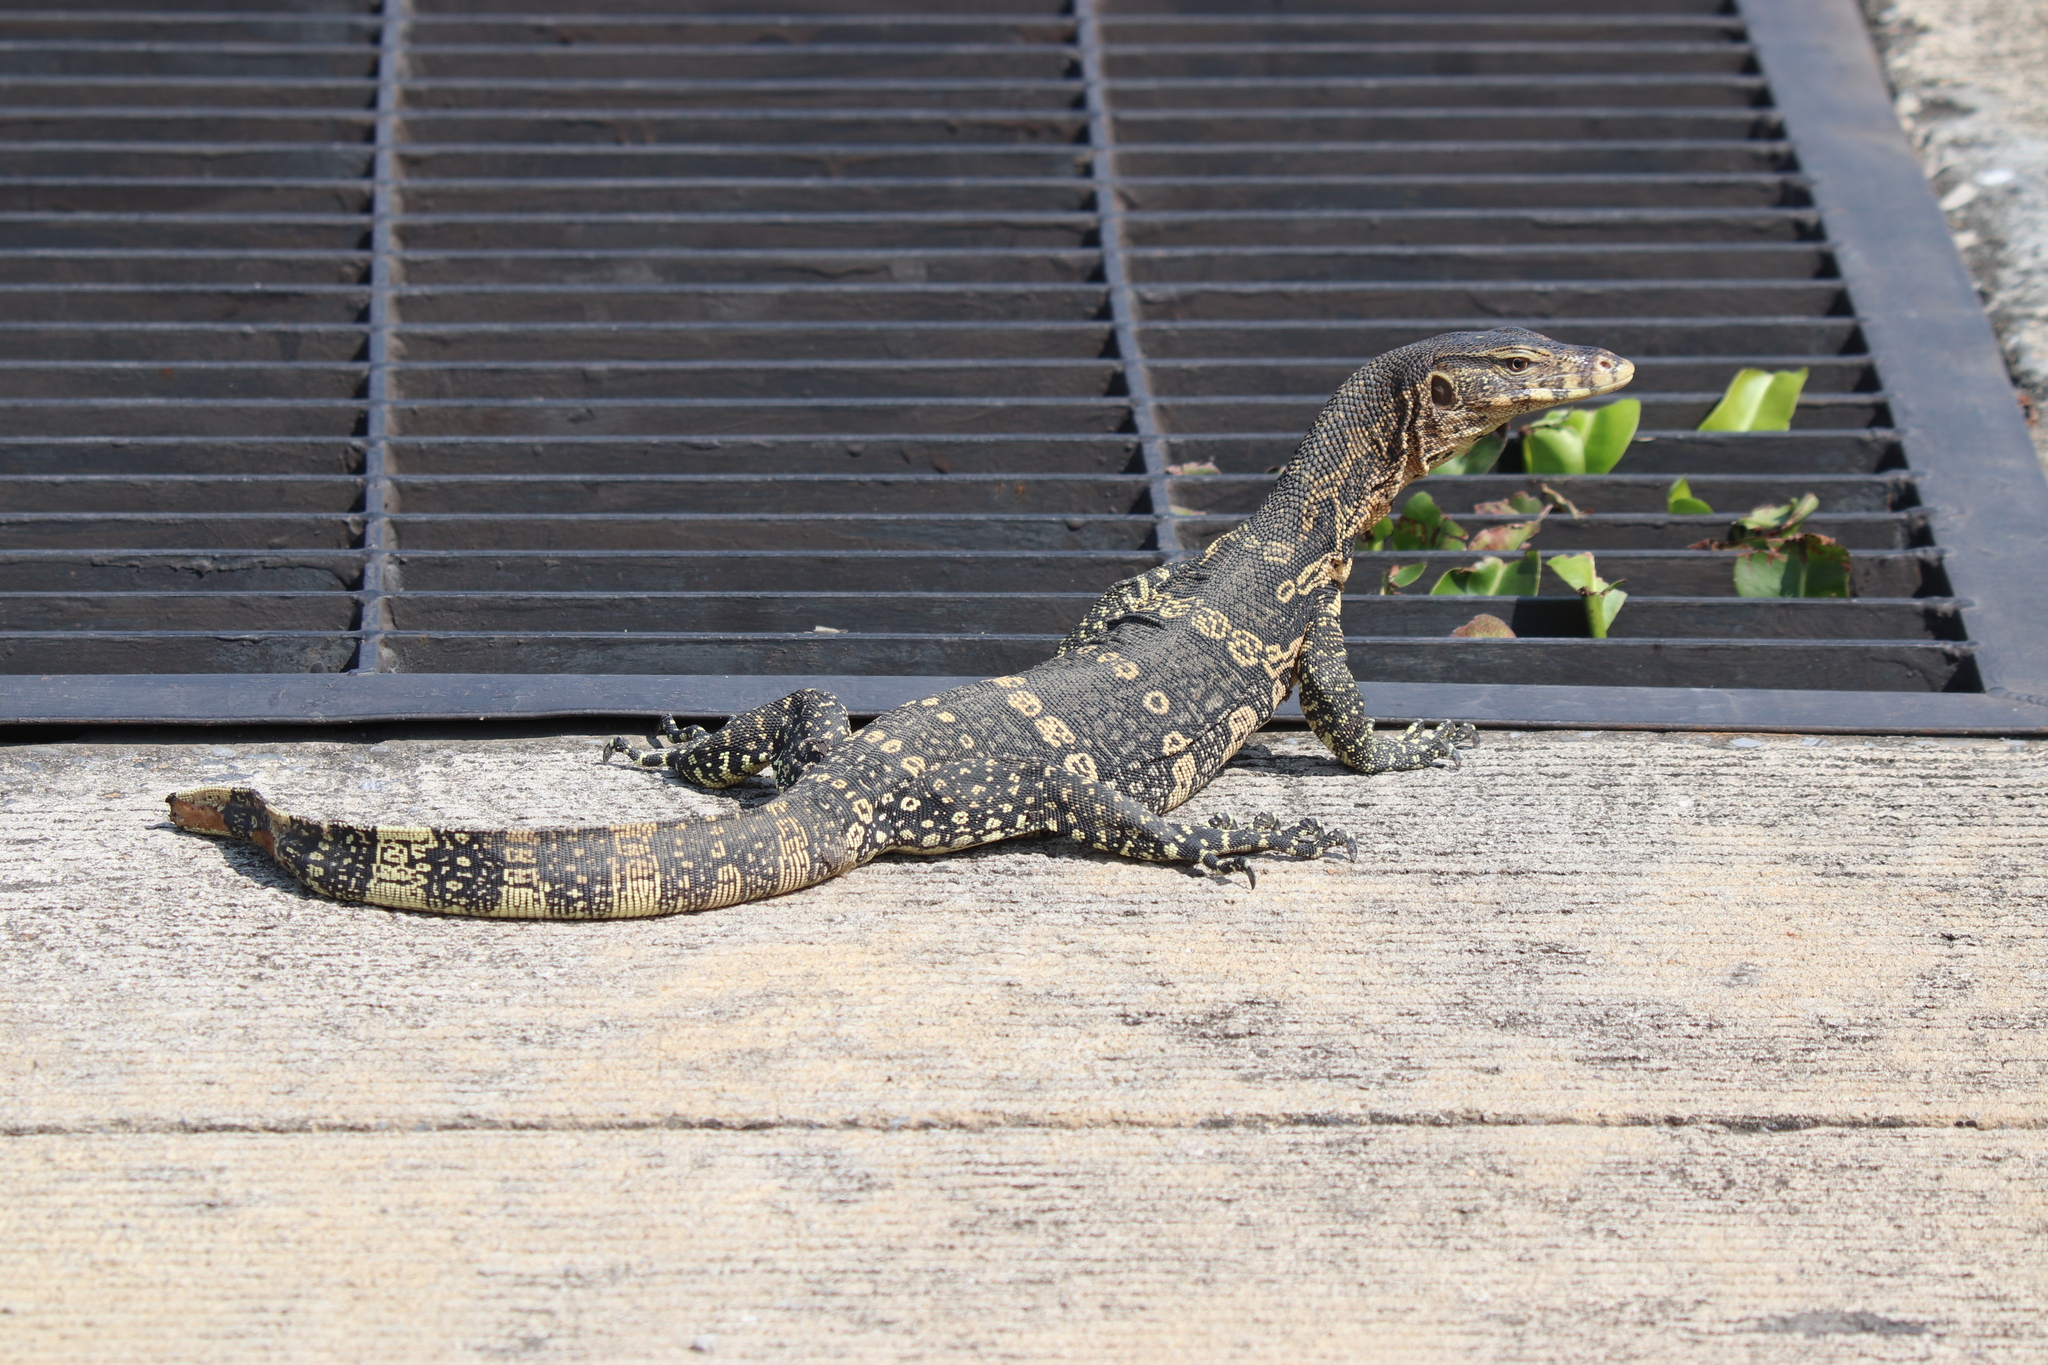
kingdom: Animalia
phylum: Chordata
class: Squamata
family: Varanidae
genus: Varanus
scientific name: Varanus salvator
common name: Common water monitor
